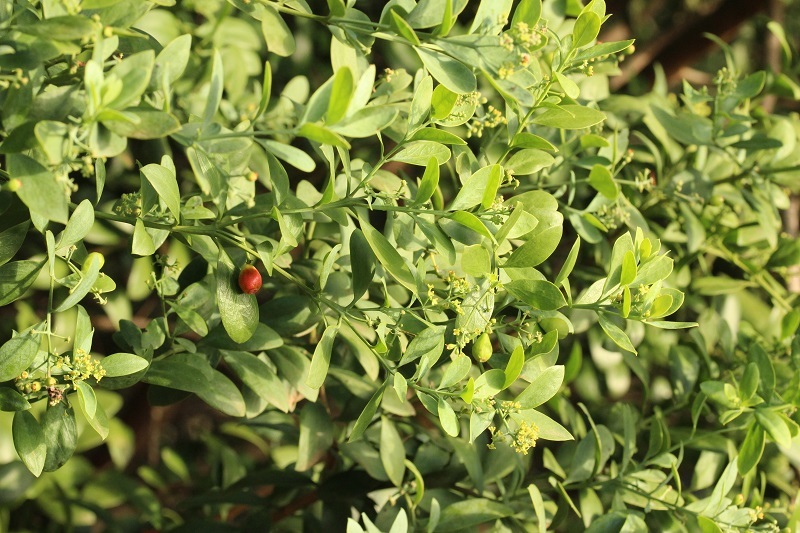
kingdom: Plantae
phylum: Tracheophyta
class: Magnoliopsida
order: Santalales
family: Santalaceae
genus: Osyris
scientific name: Osyris compressa
